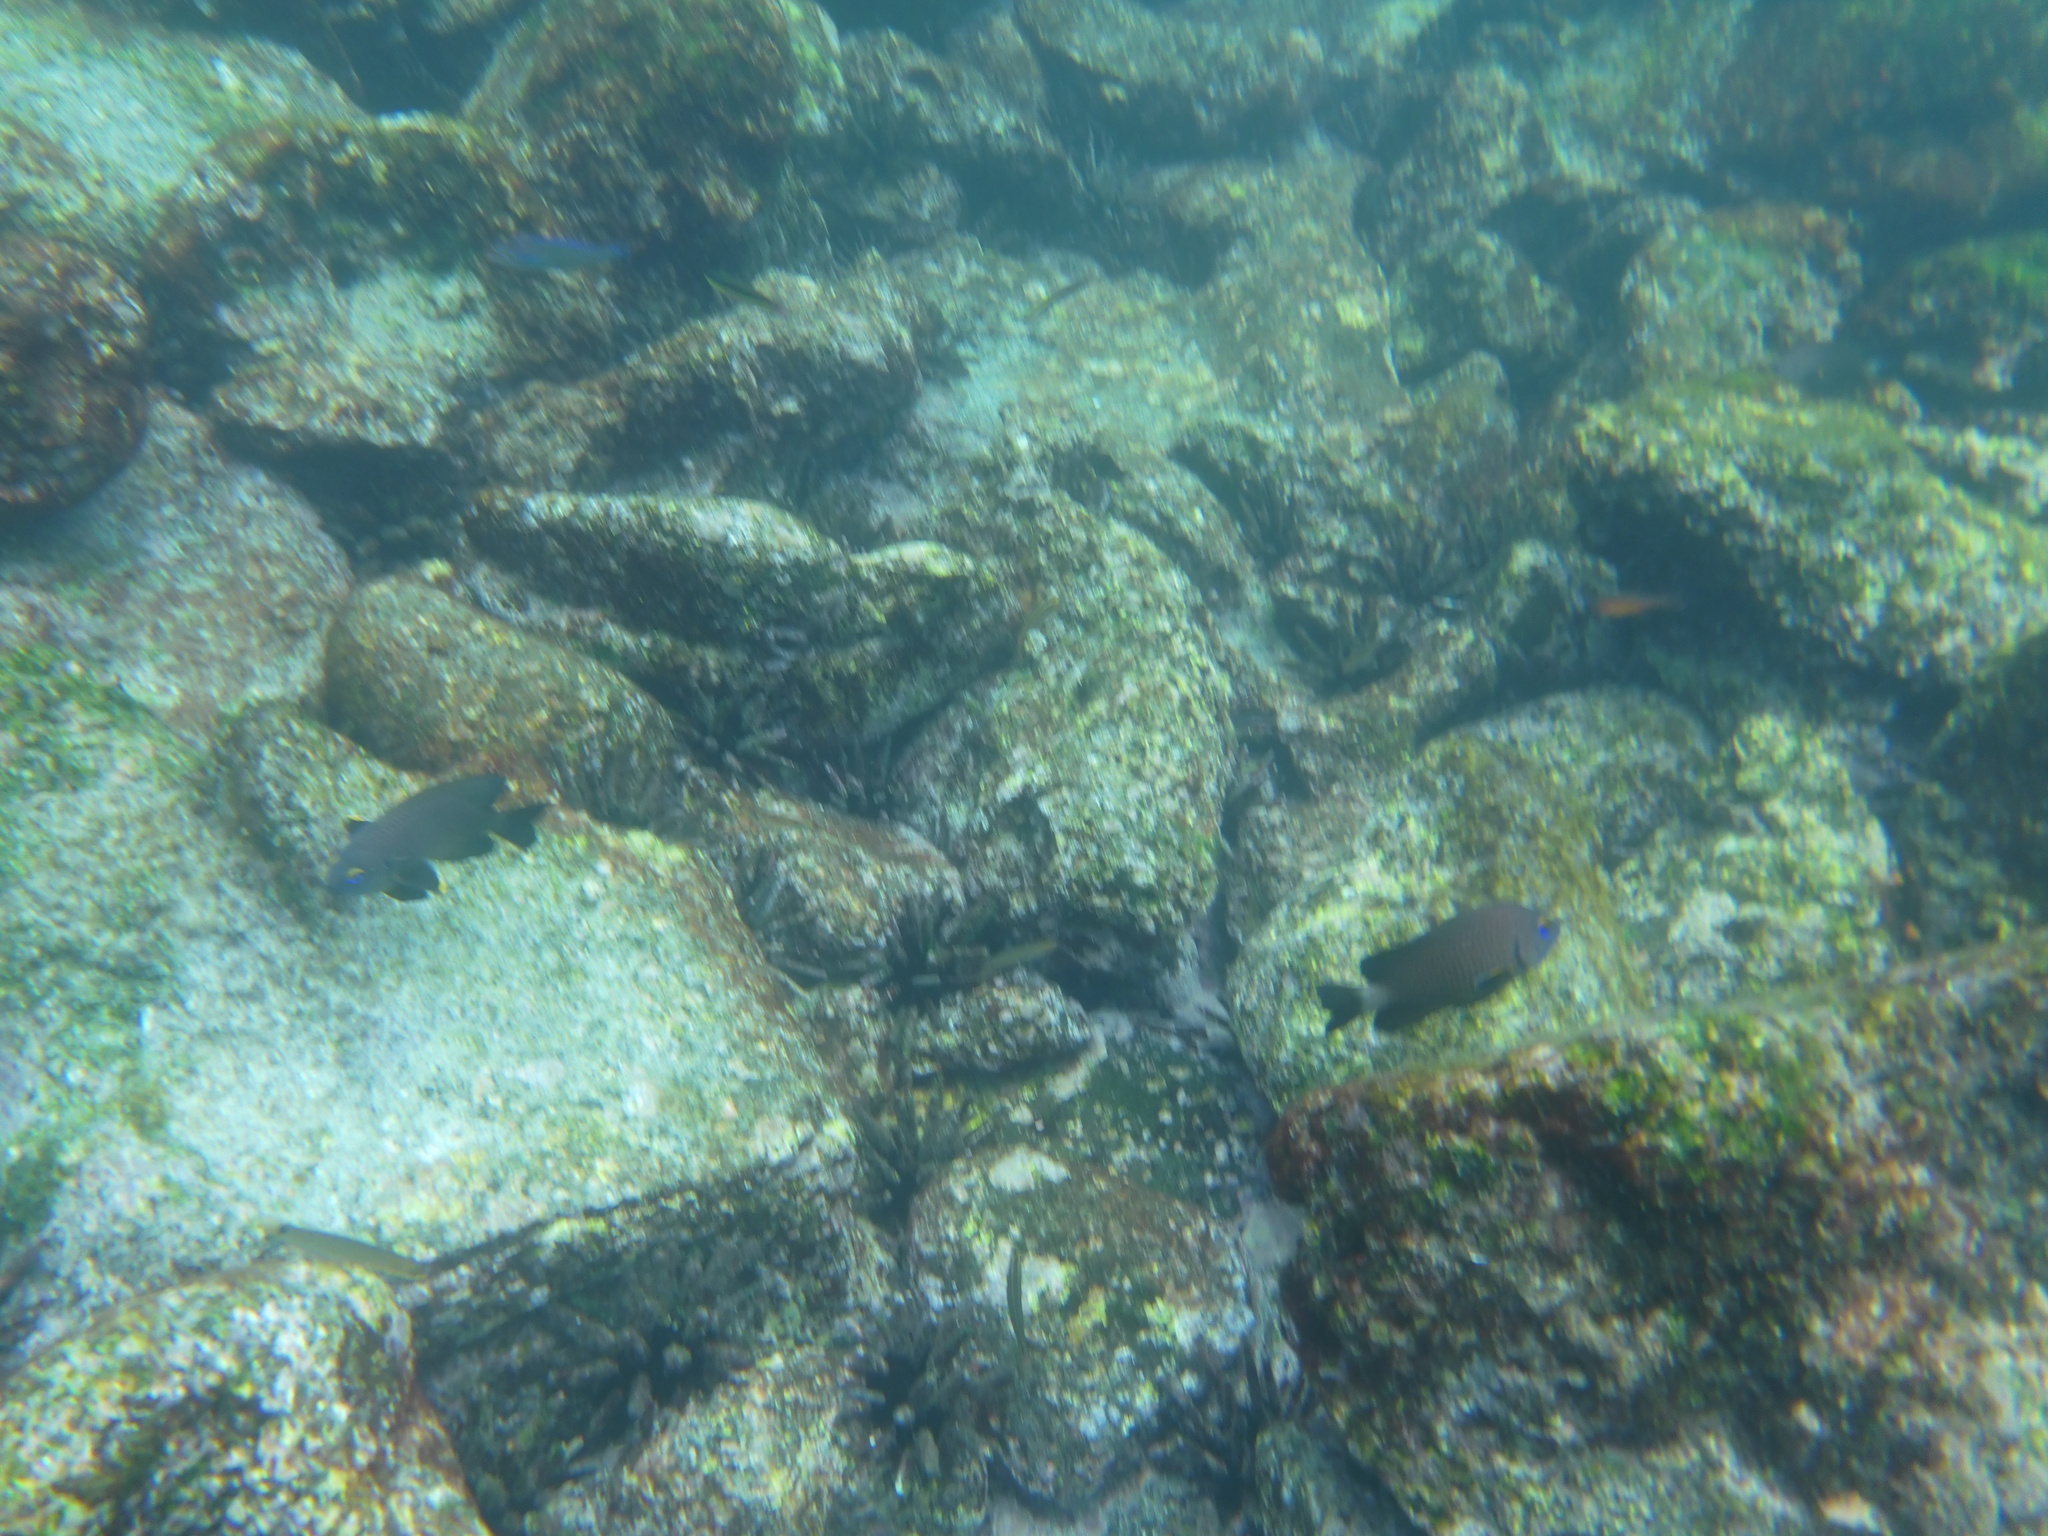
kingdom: Animalia
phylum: Chordata
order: Perciformes
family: Pomacentridae
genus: Stegastes
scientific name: Stegastes beebei
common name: Galapagos ringtail damselfish
